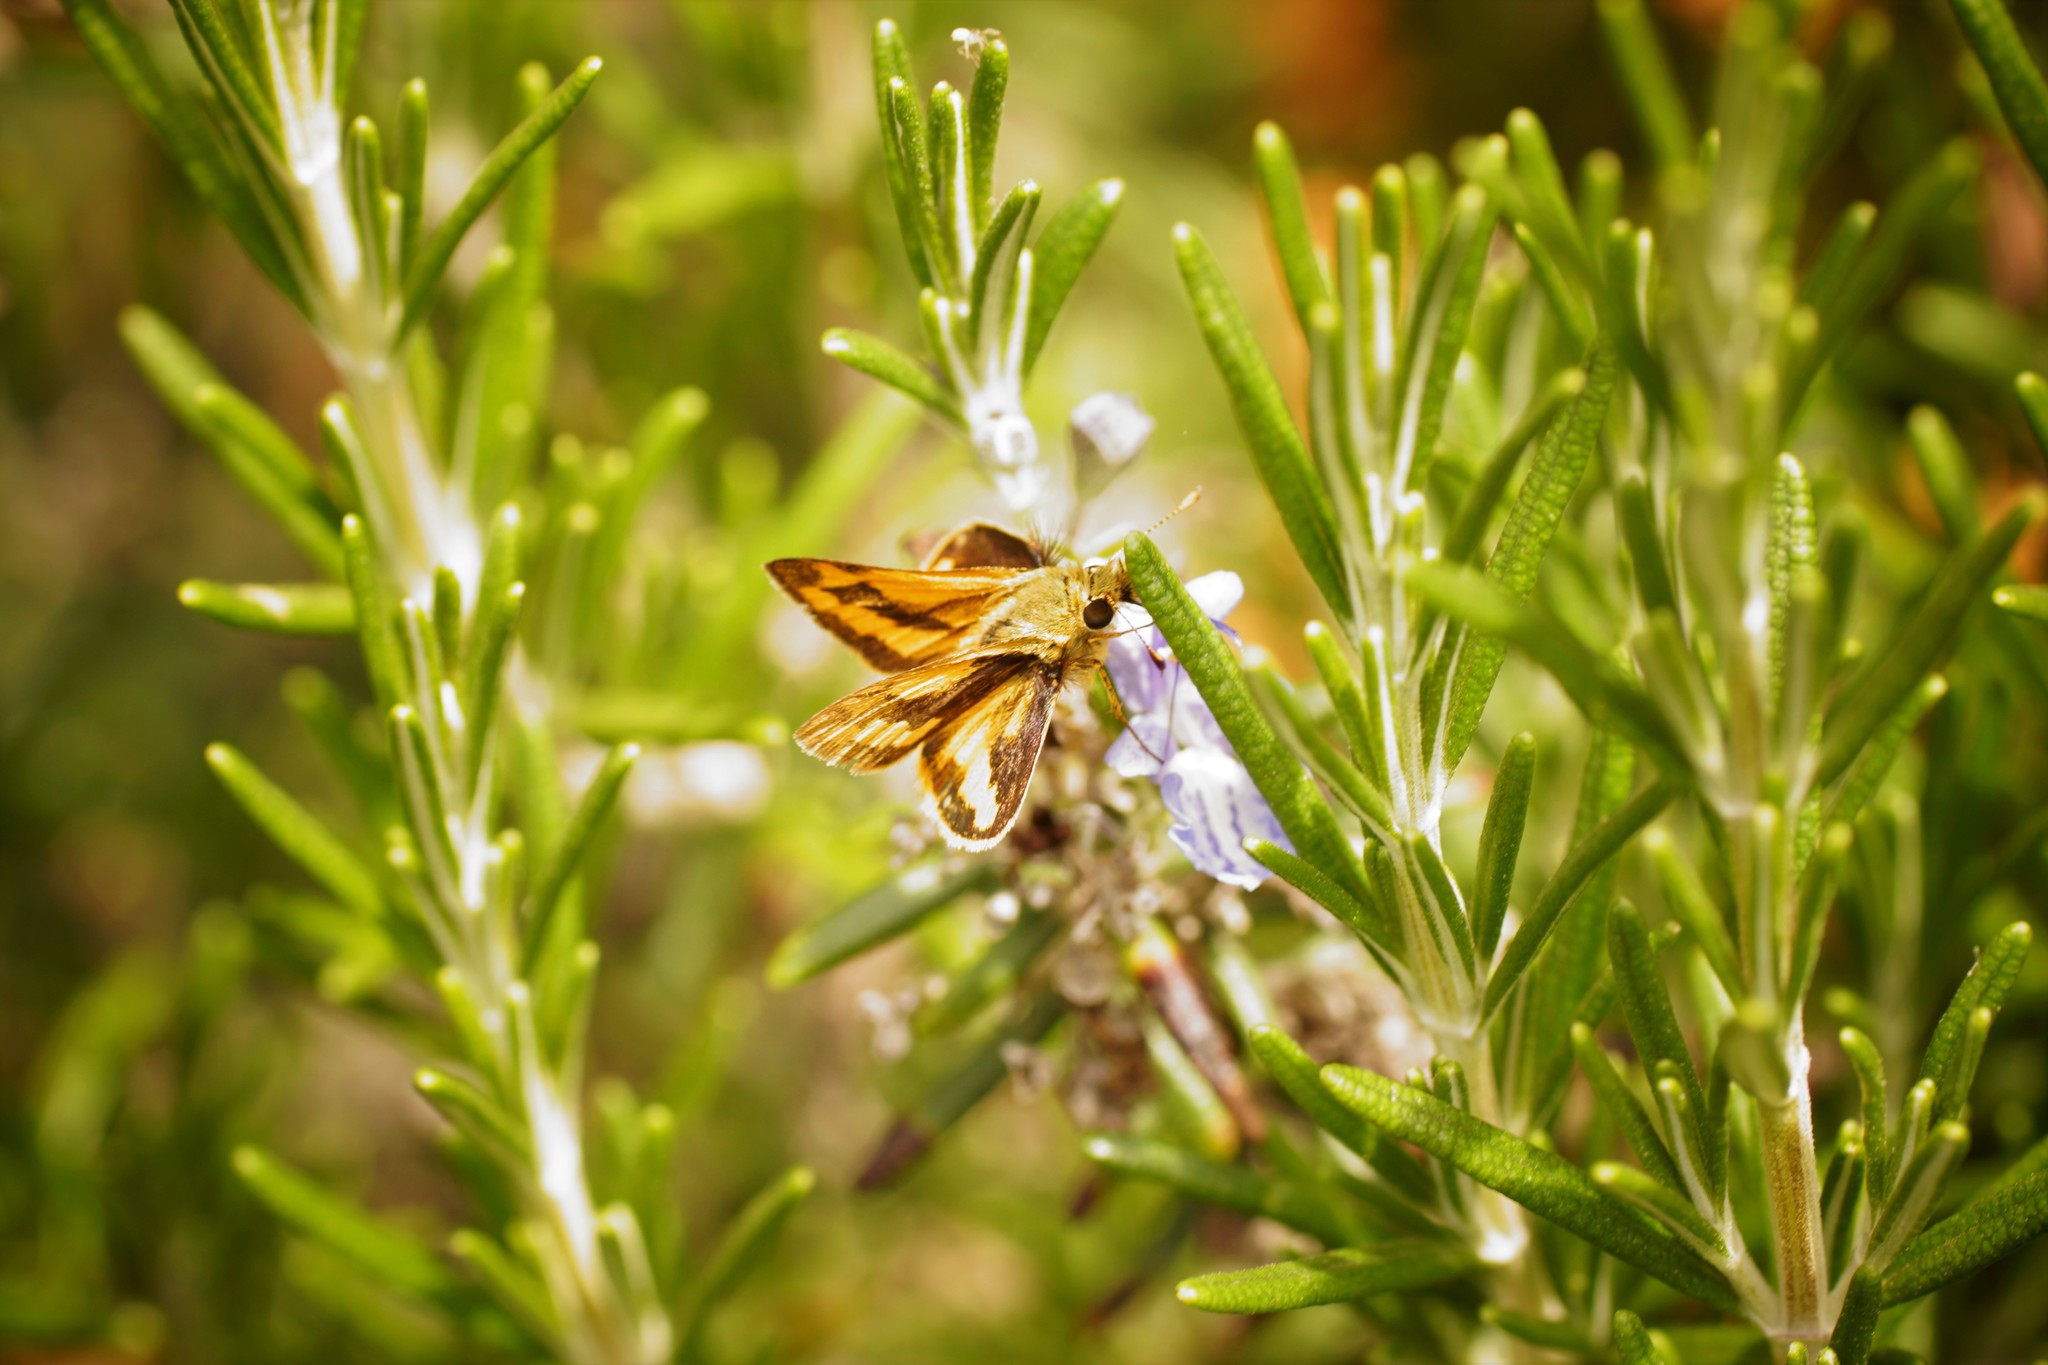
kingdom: Animalia
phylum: Arthropoda
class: Insecta
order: Lepidoptera
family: Hesperiidae
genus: Ocybadistes
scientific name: Ocybadistes walkeri
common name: Yellow-banded dart
